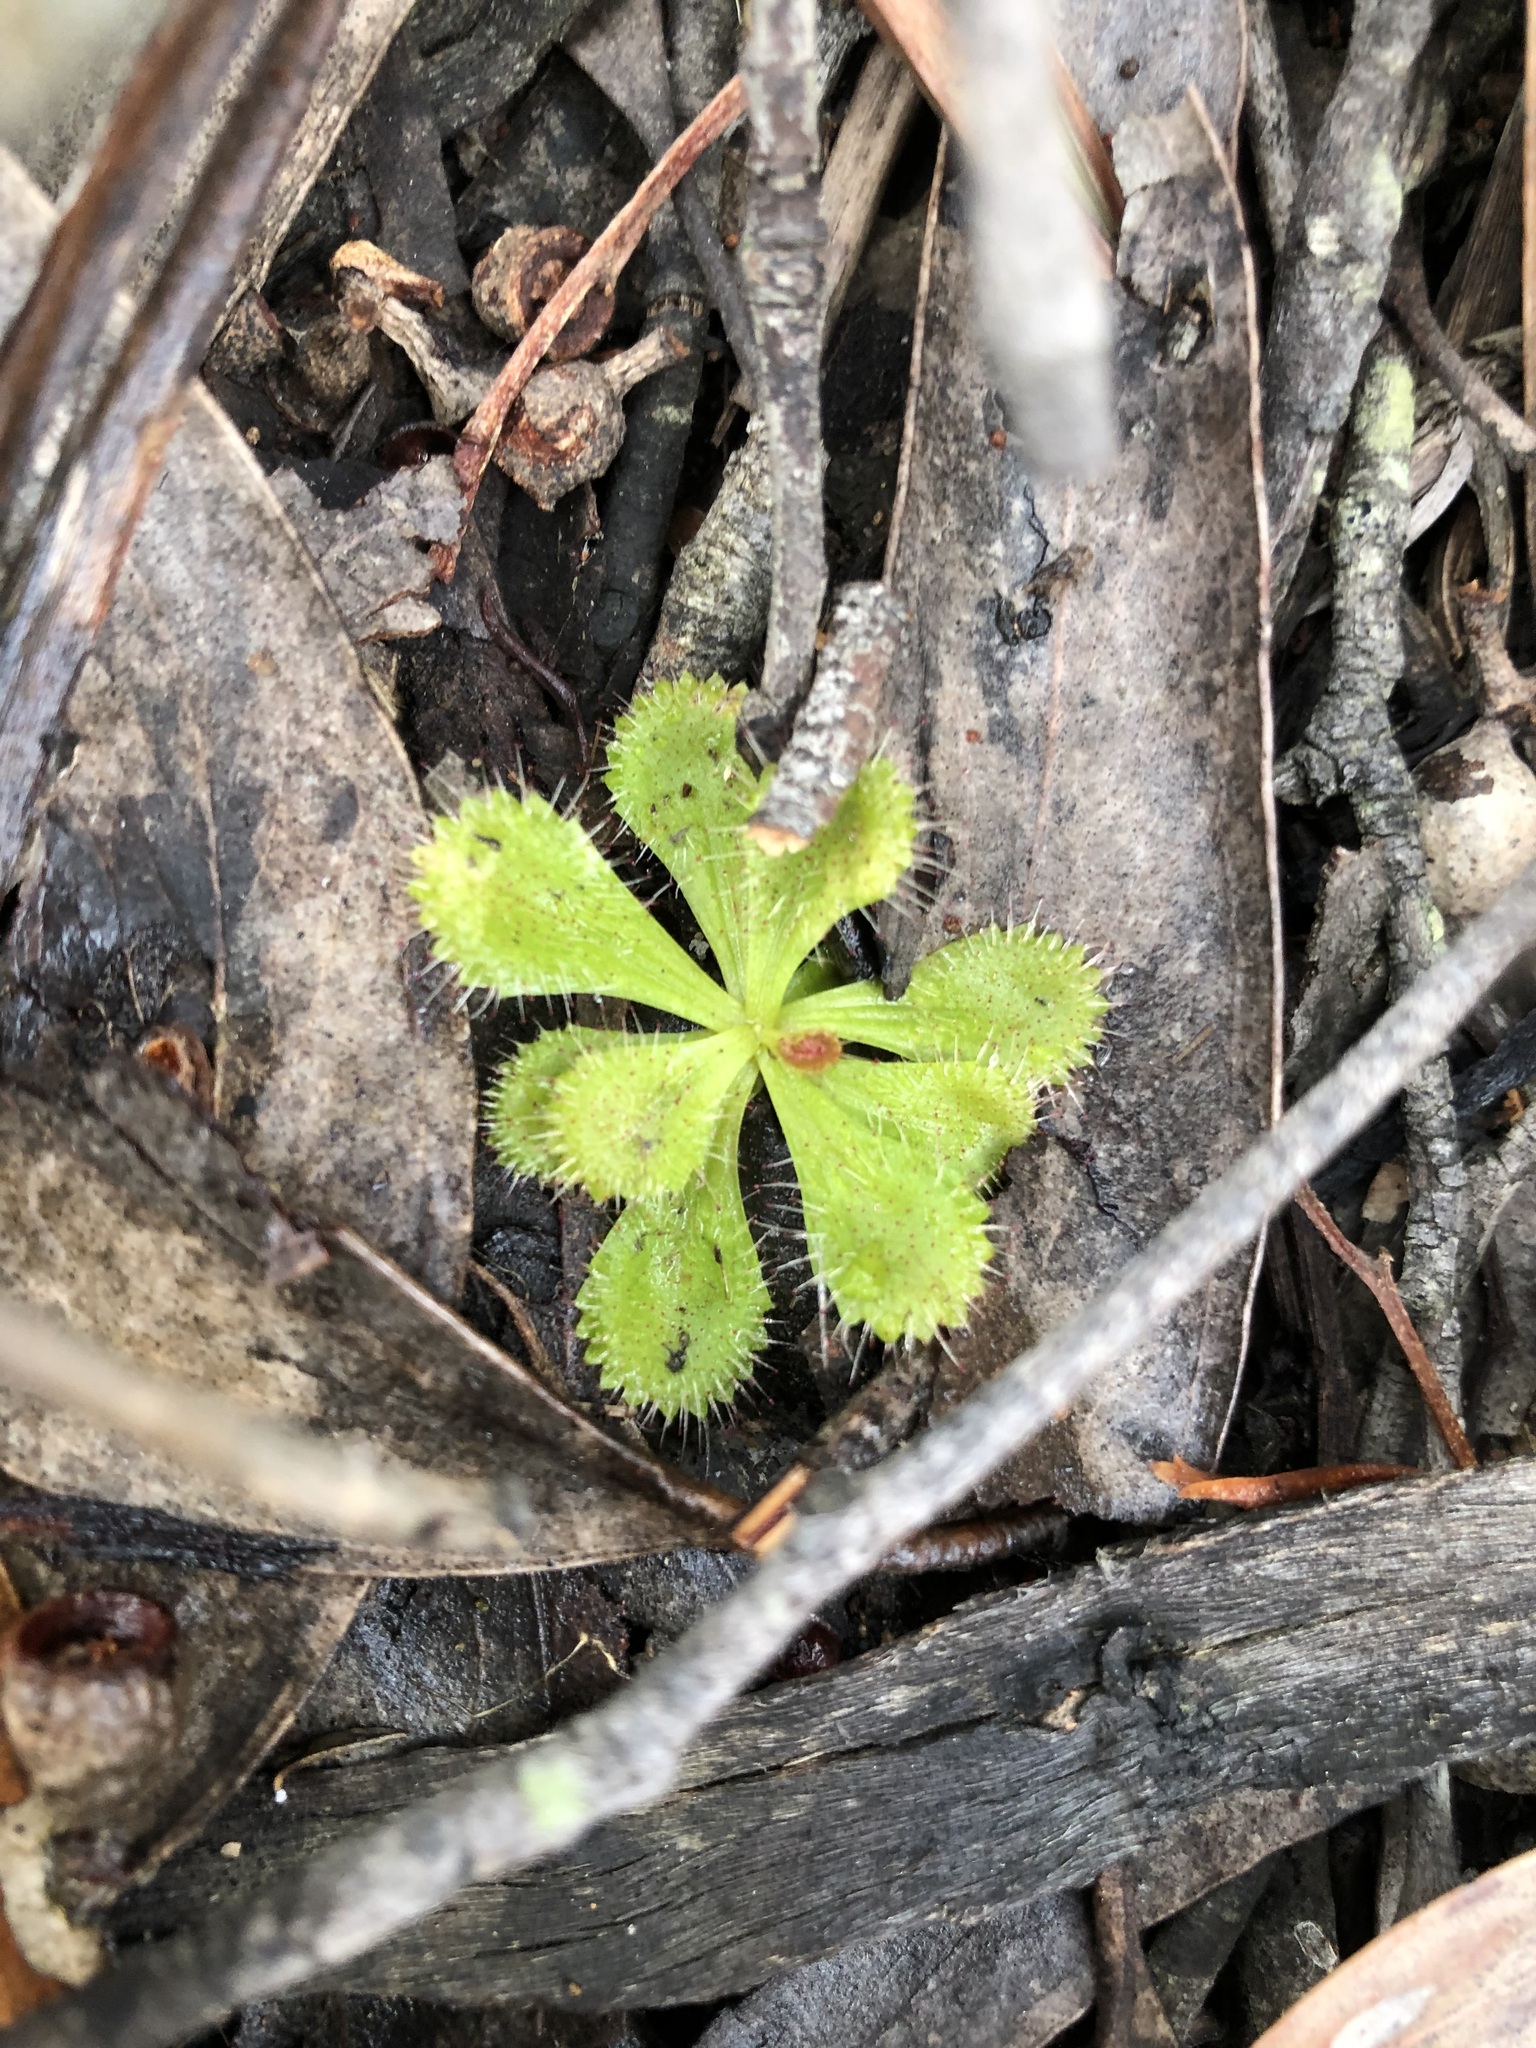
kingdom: Plantae
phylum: Tracheophyta
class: Magnoliopsida
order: Caryophyllales
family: Droseraceae
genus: Drosera
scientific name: Drosera aberrans
